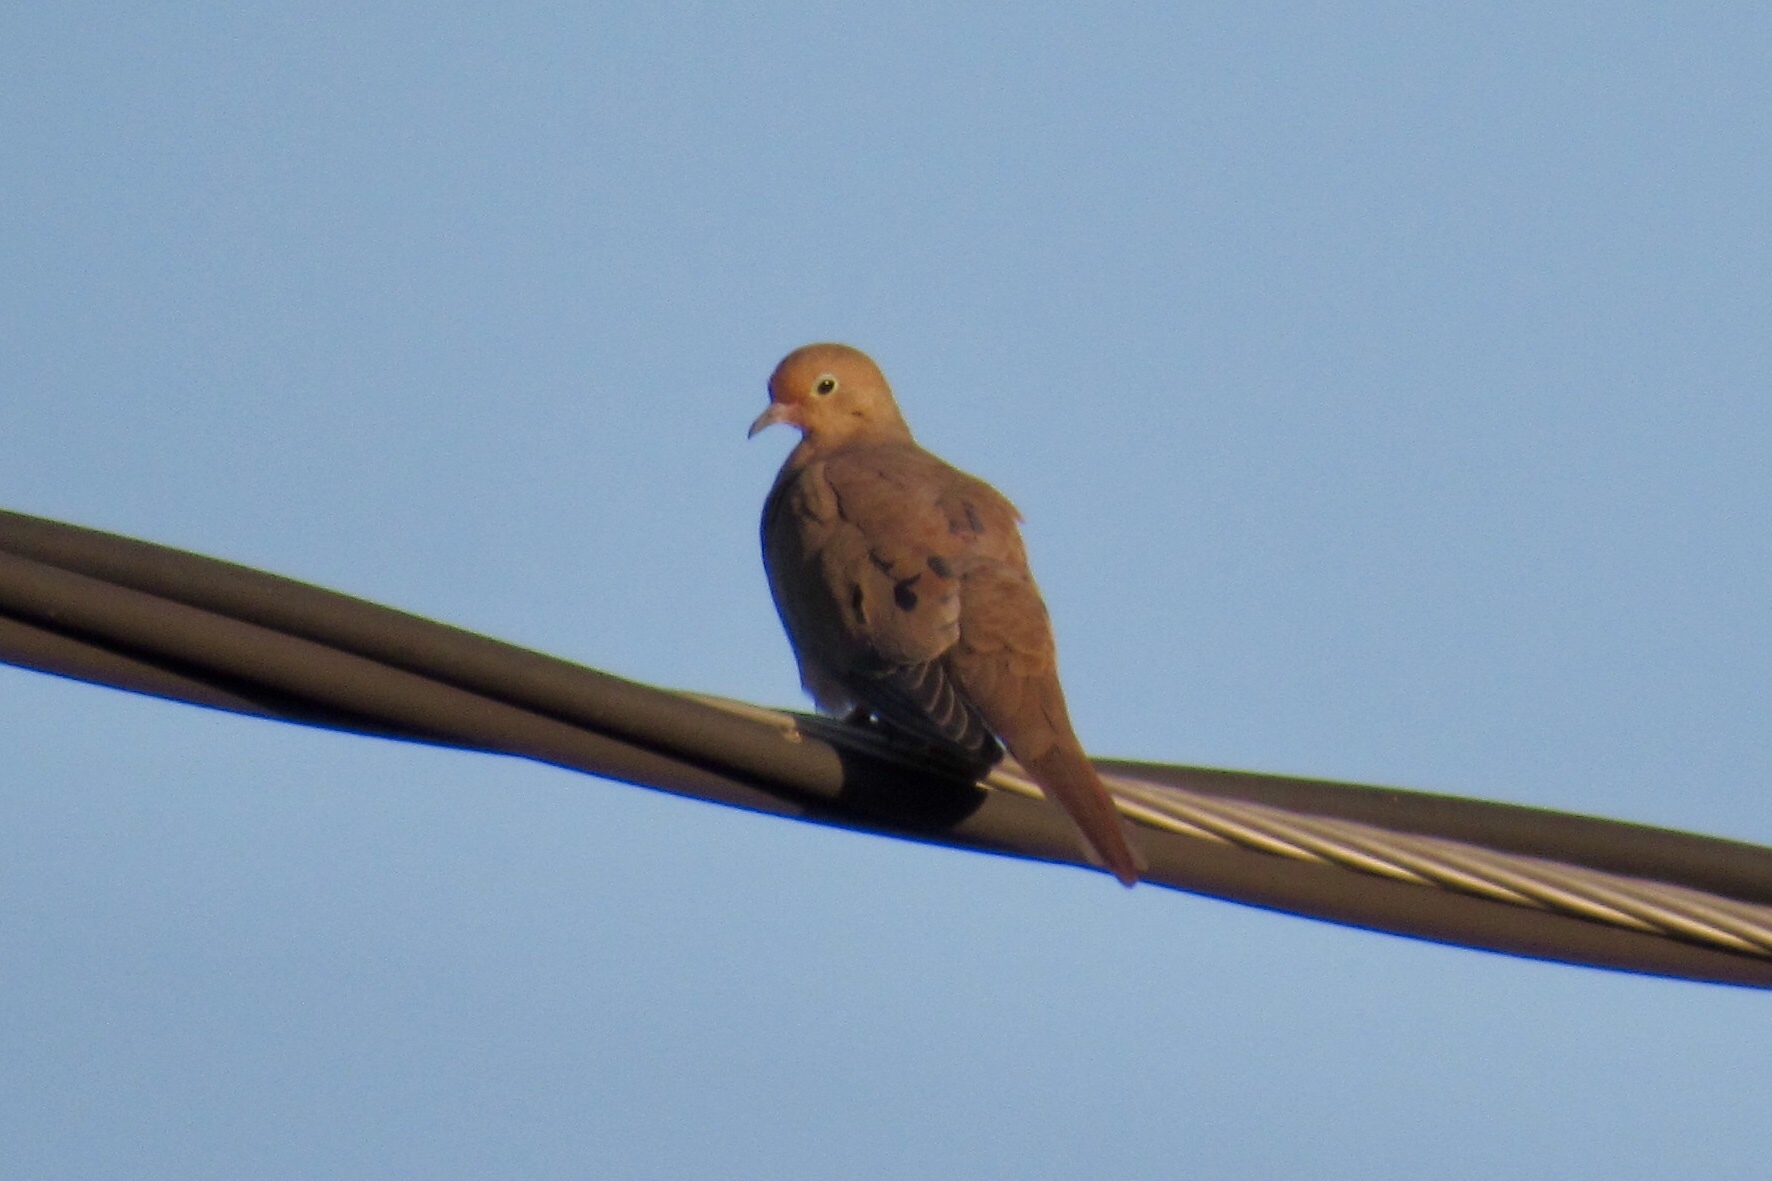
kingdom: Animalia
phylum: Chordata
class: Aves
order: Columbiformes
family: Columbidae
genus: Zenaida
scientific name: Zenaida macroura
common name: Mourning dove
